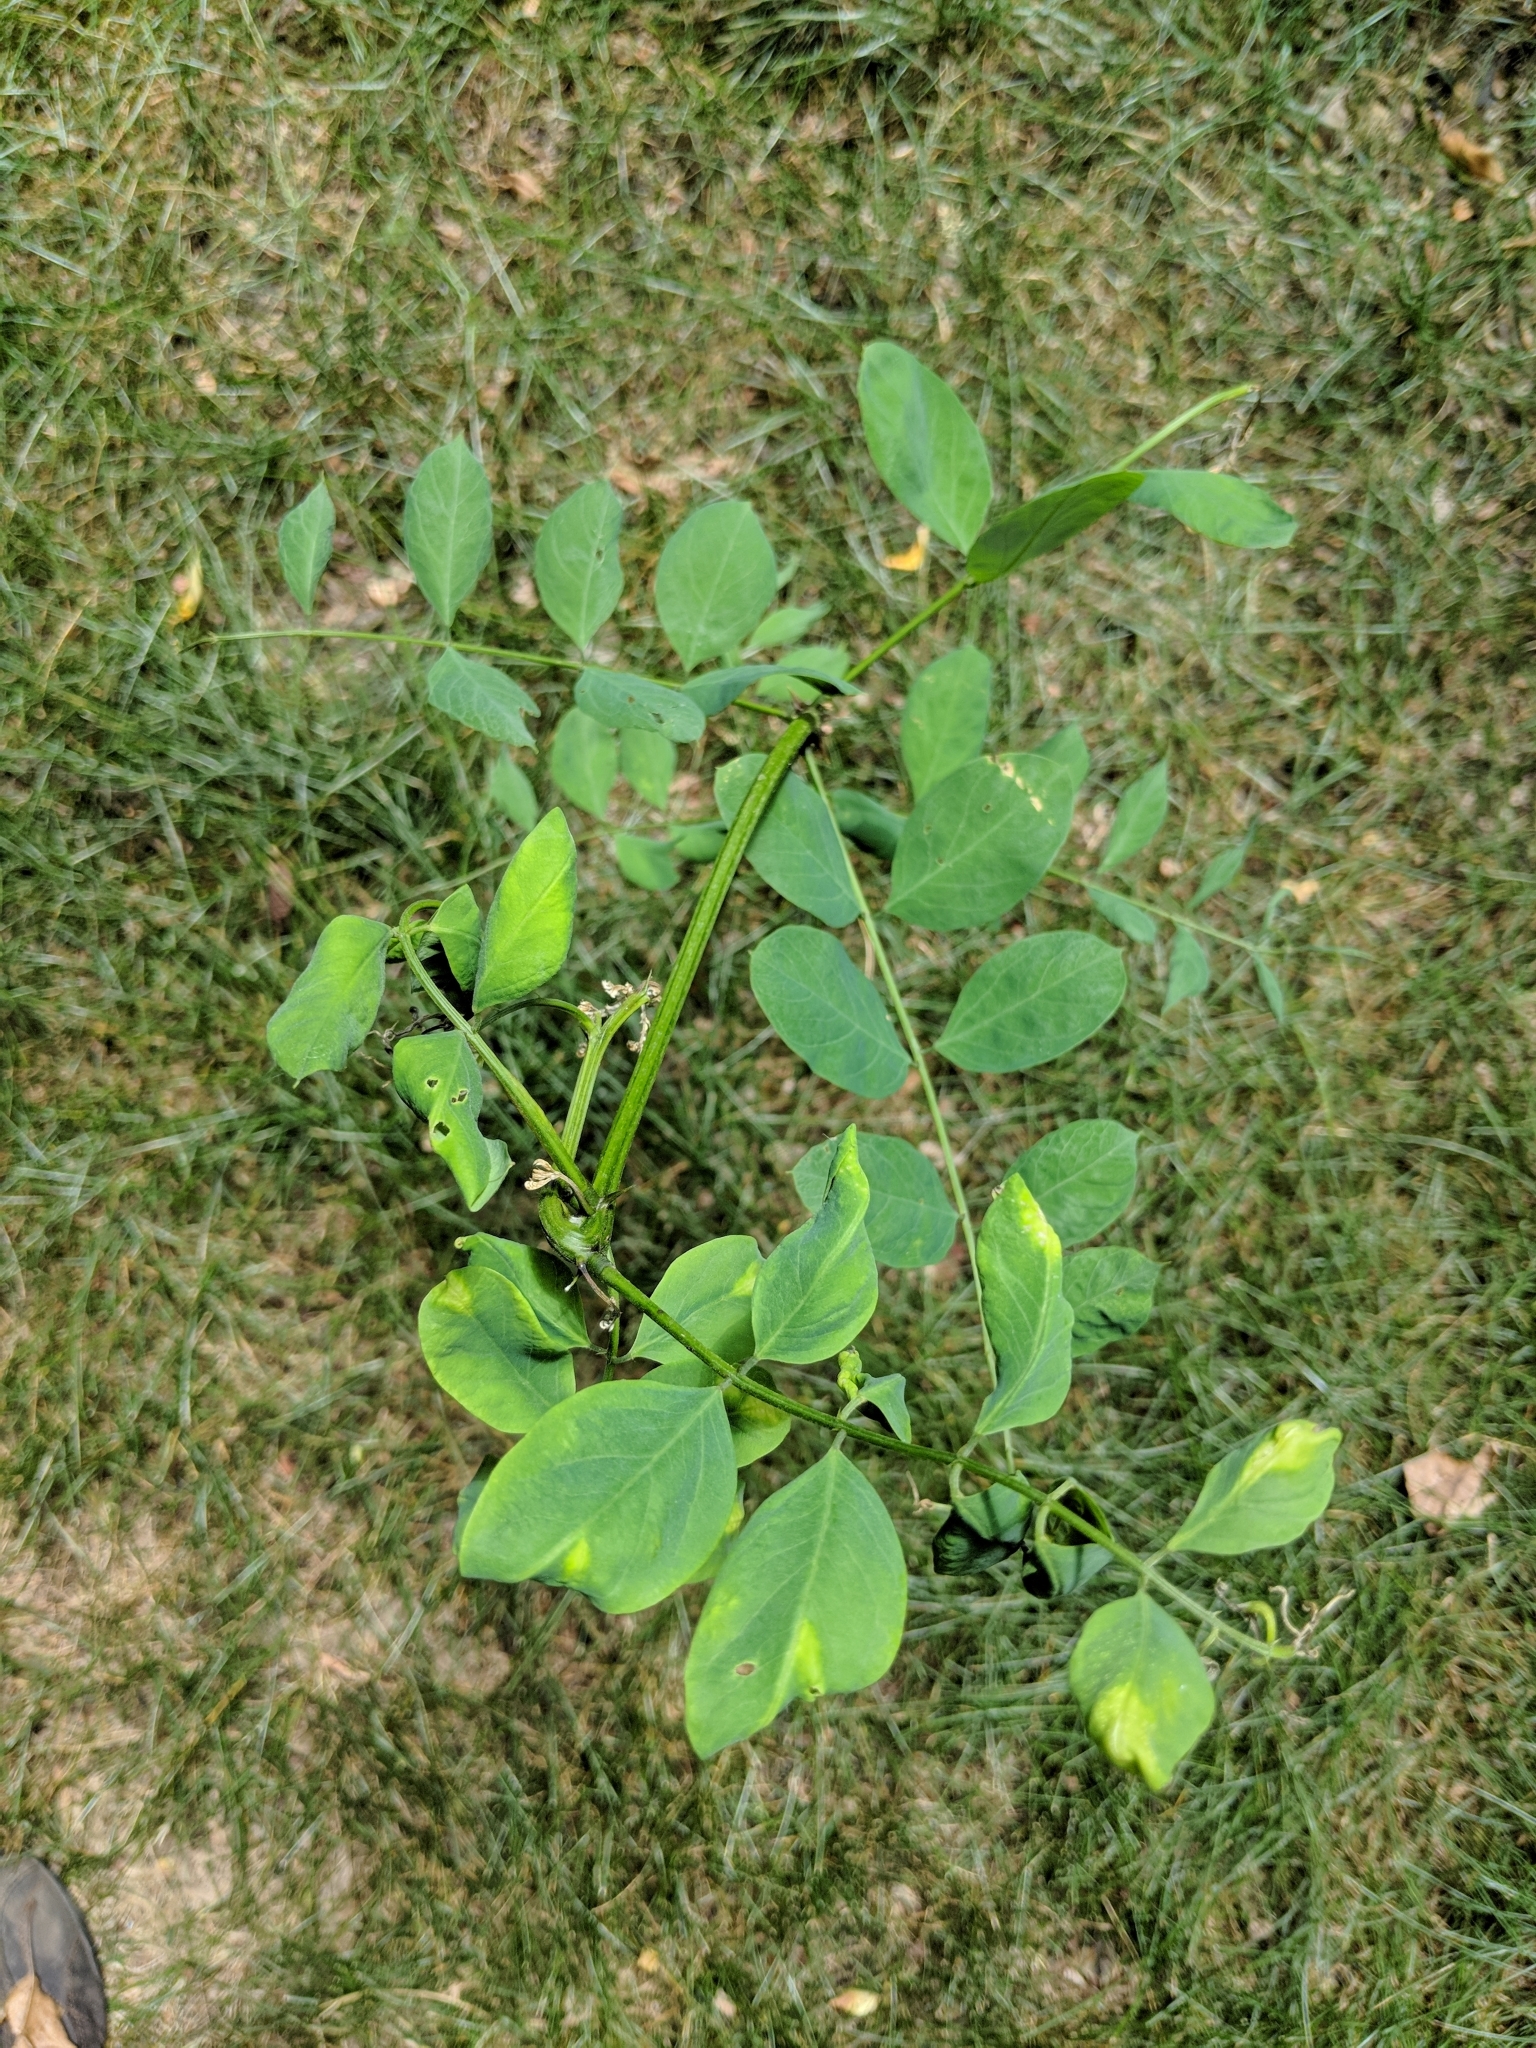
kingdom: Plantae
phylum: Tracheophyta
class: Magnoliopsida
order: Fabales
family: Fabaceae
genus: Robinia
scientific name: Robinia pseudoacacia
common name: Black locust
